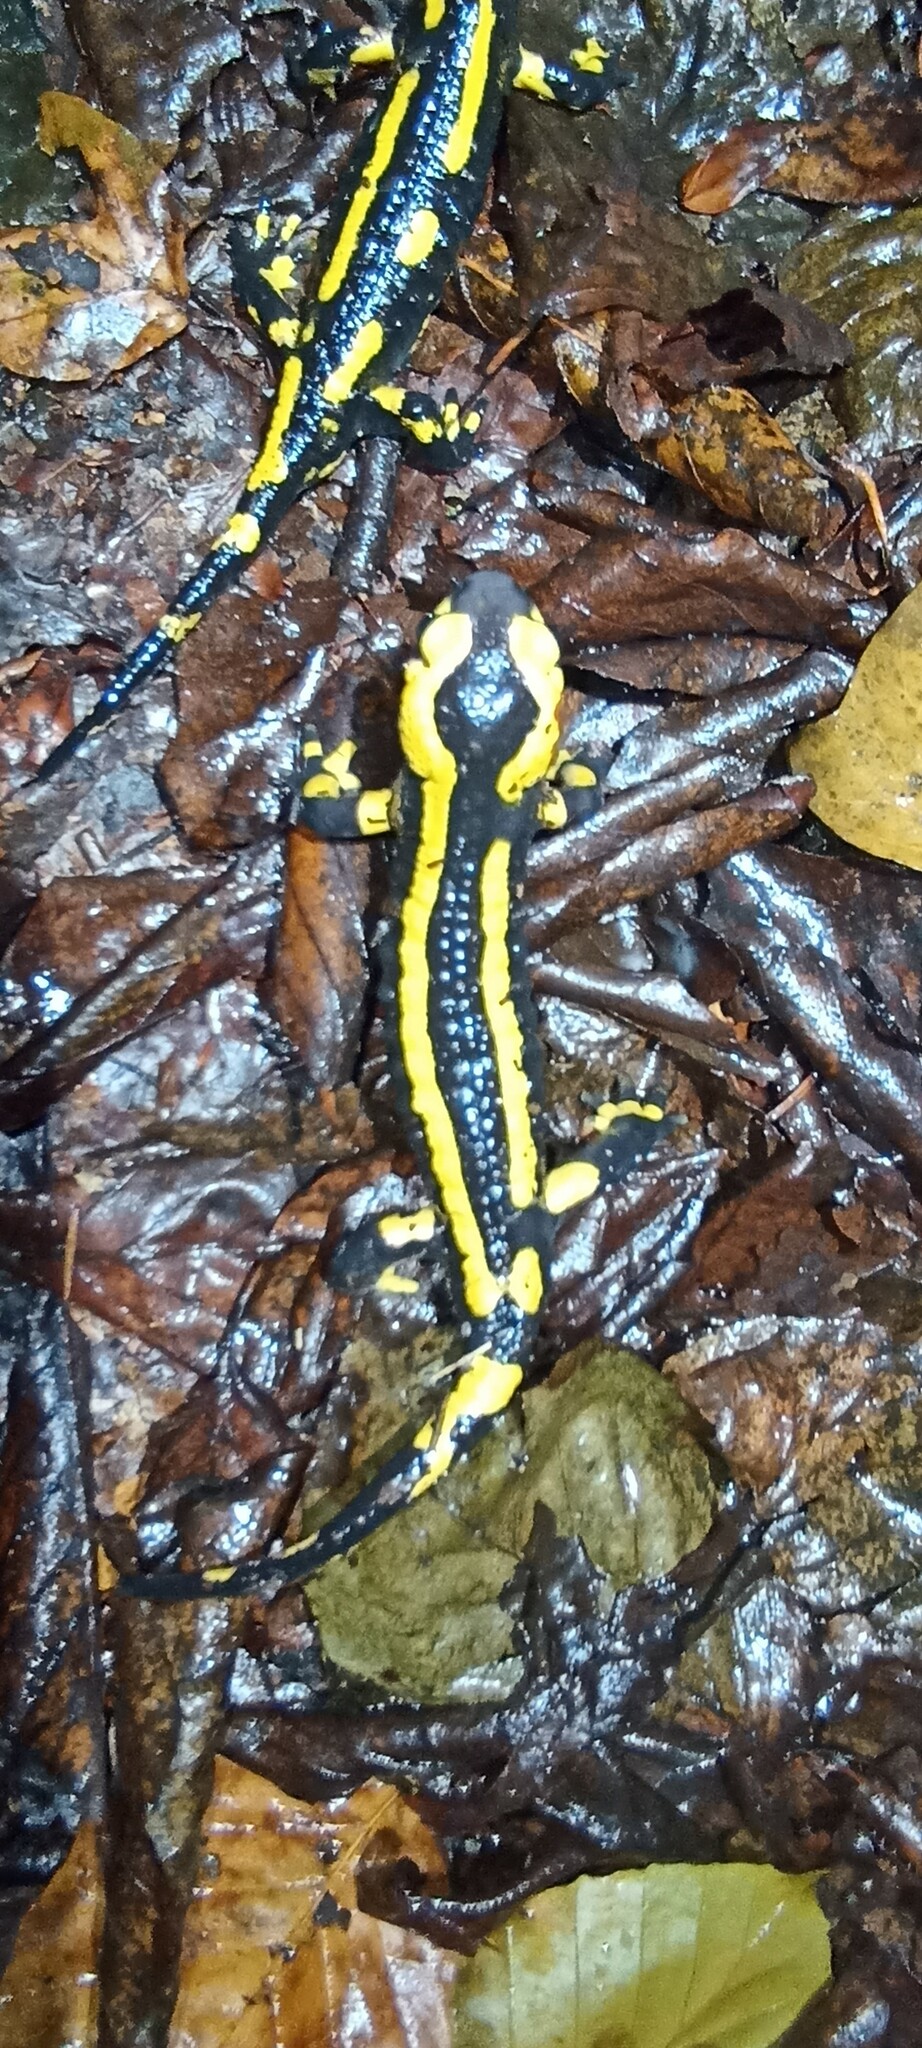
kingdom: Animalia
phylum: Chordata
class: Amphibia
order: Caudata
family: Salamandridae
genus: Salamandra
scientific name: Salamandra salamandra
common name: Fire salamander
